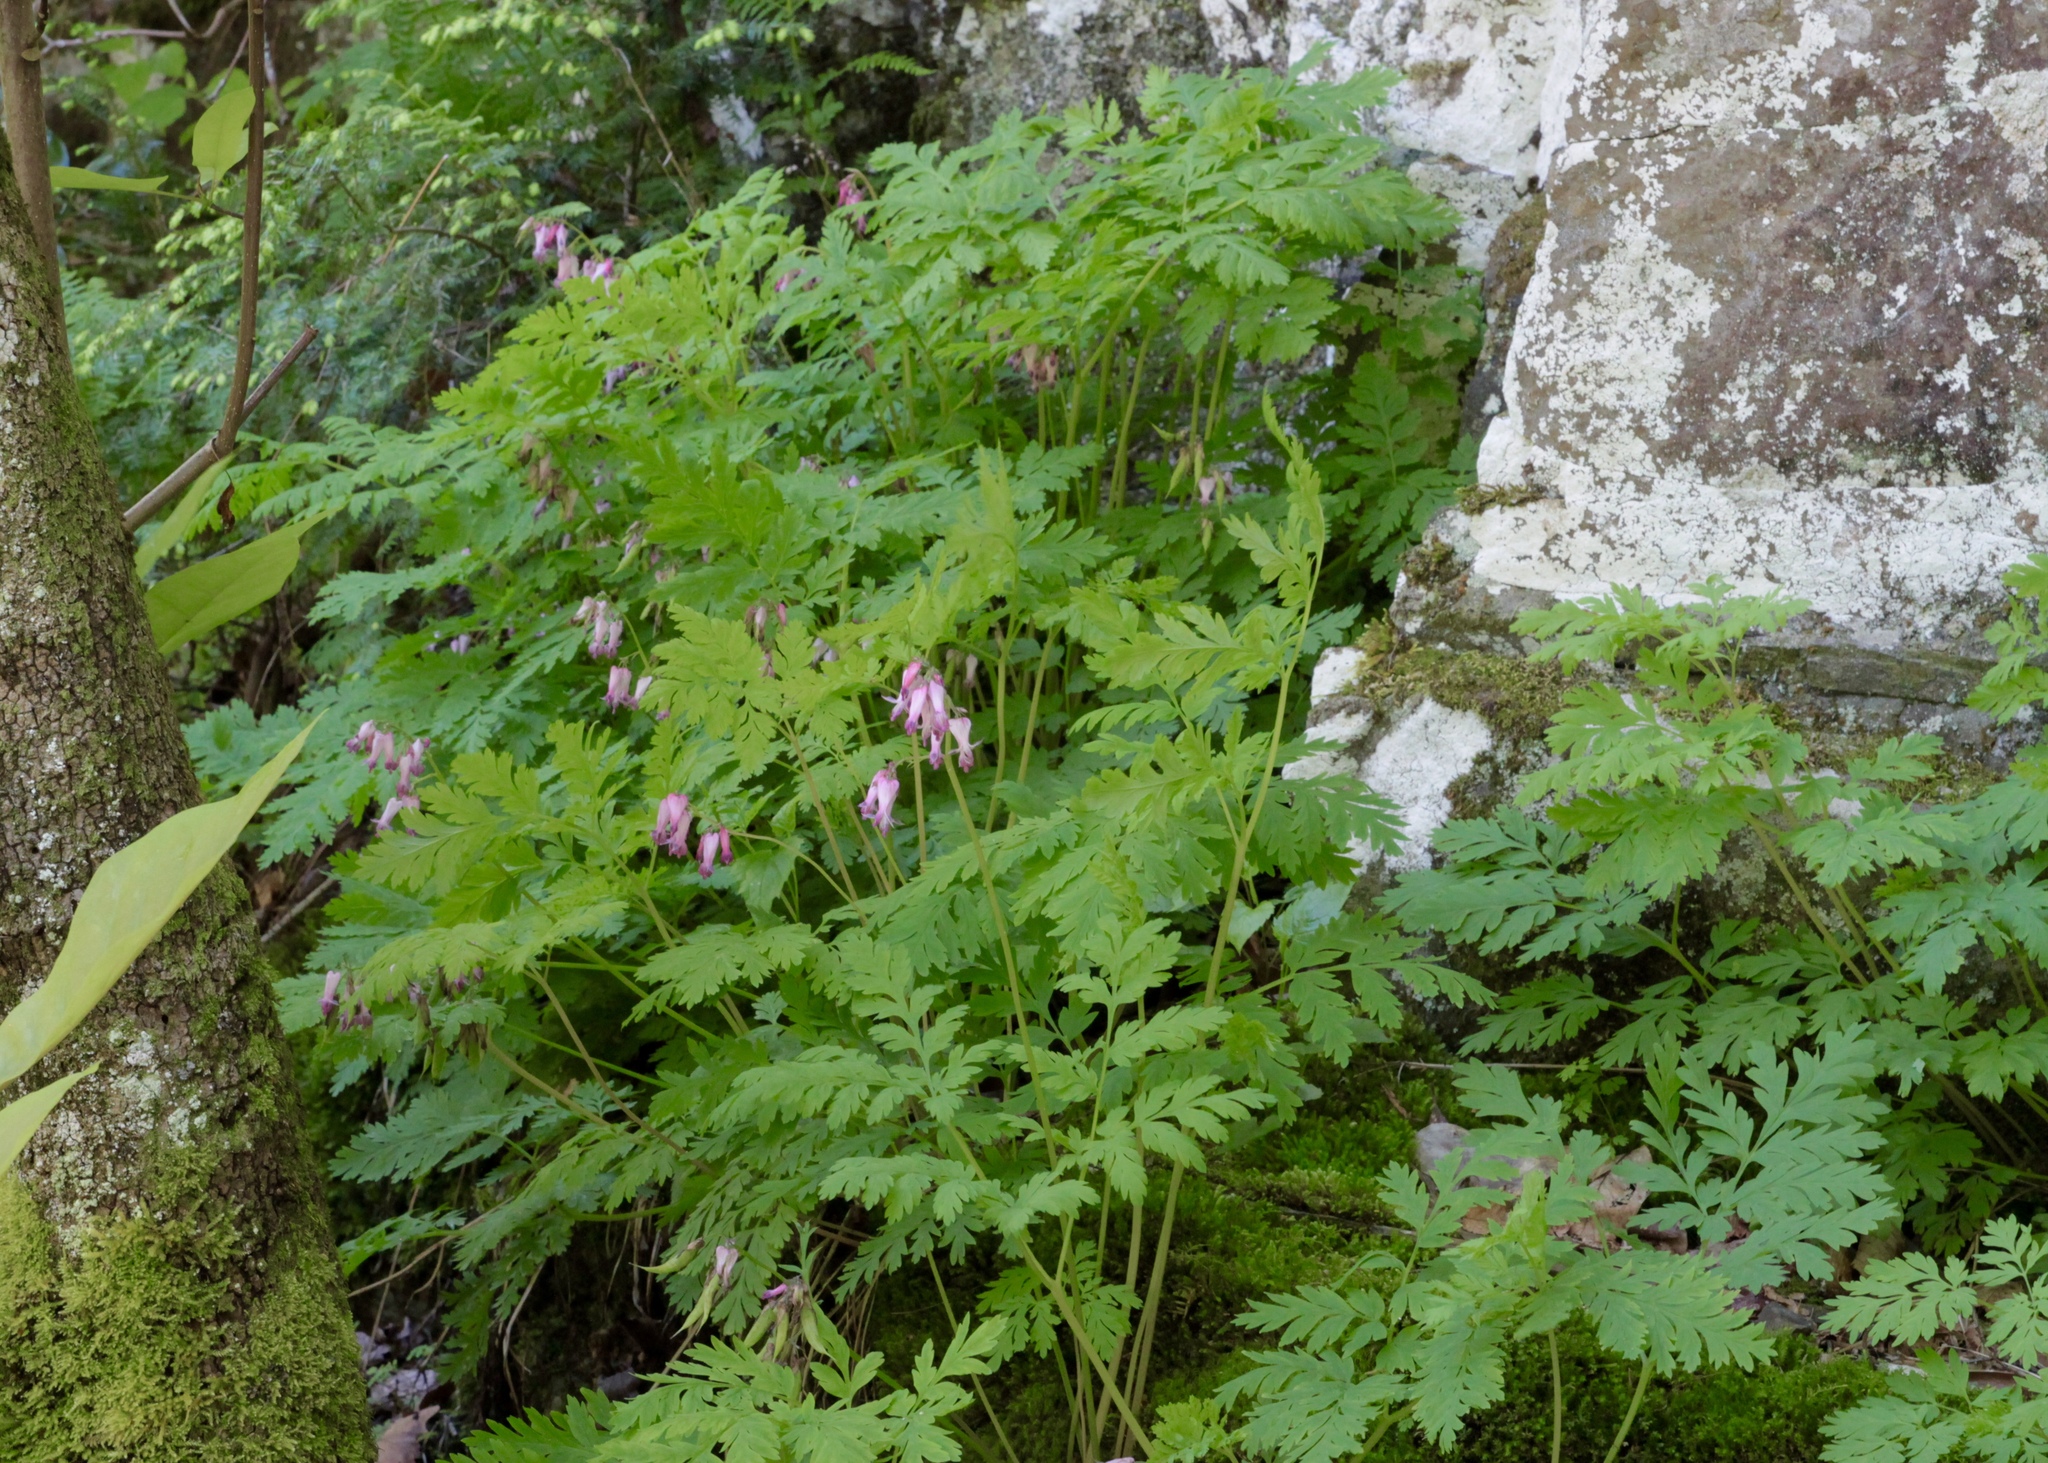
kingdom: Plantae
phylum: Tracheophyta
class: Magnoliopsida
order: Ranunculales
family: Papaveraceae
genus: Dicentra
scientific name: Dicentra eximia
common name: Turkey-corn
